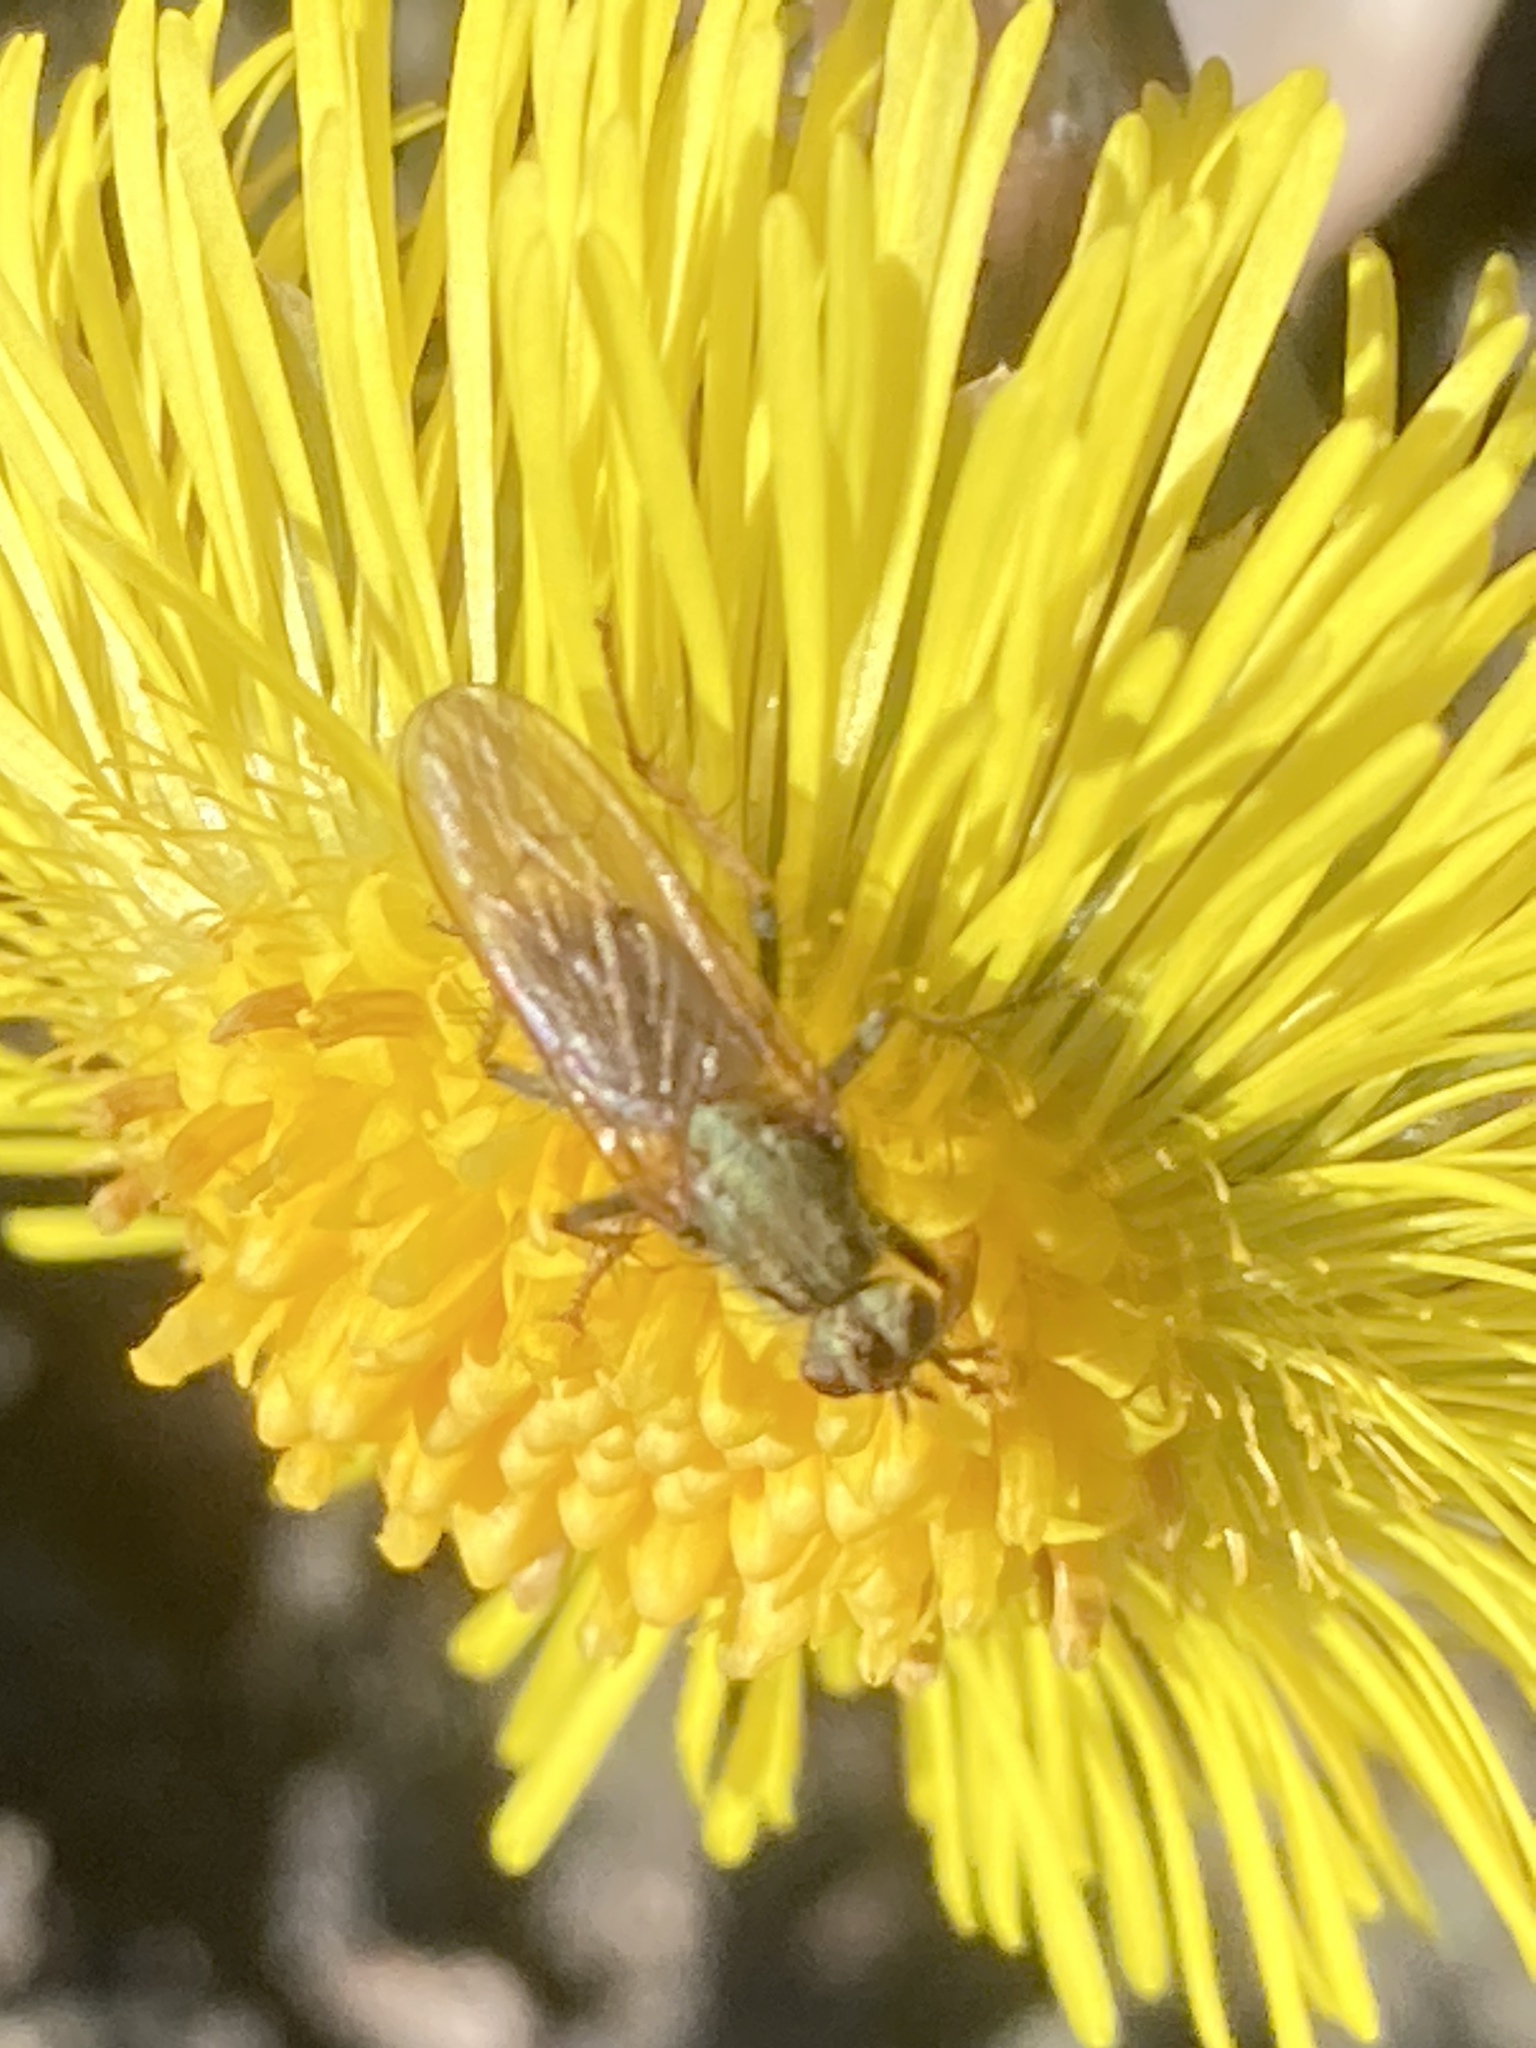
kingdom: Animalia
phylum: Arthropoda
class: Insecta
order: Diptera
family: Scathophagidae
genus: Scathophaga
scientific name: Scathophaga stercoraria
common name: Yellow dung fly
